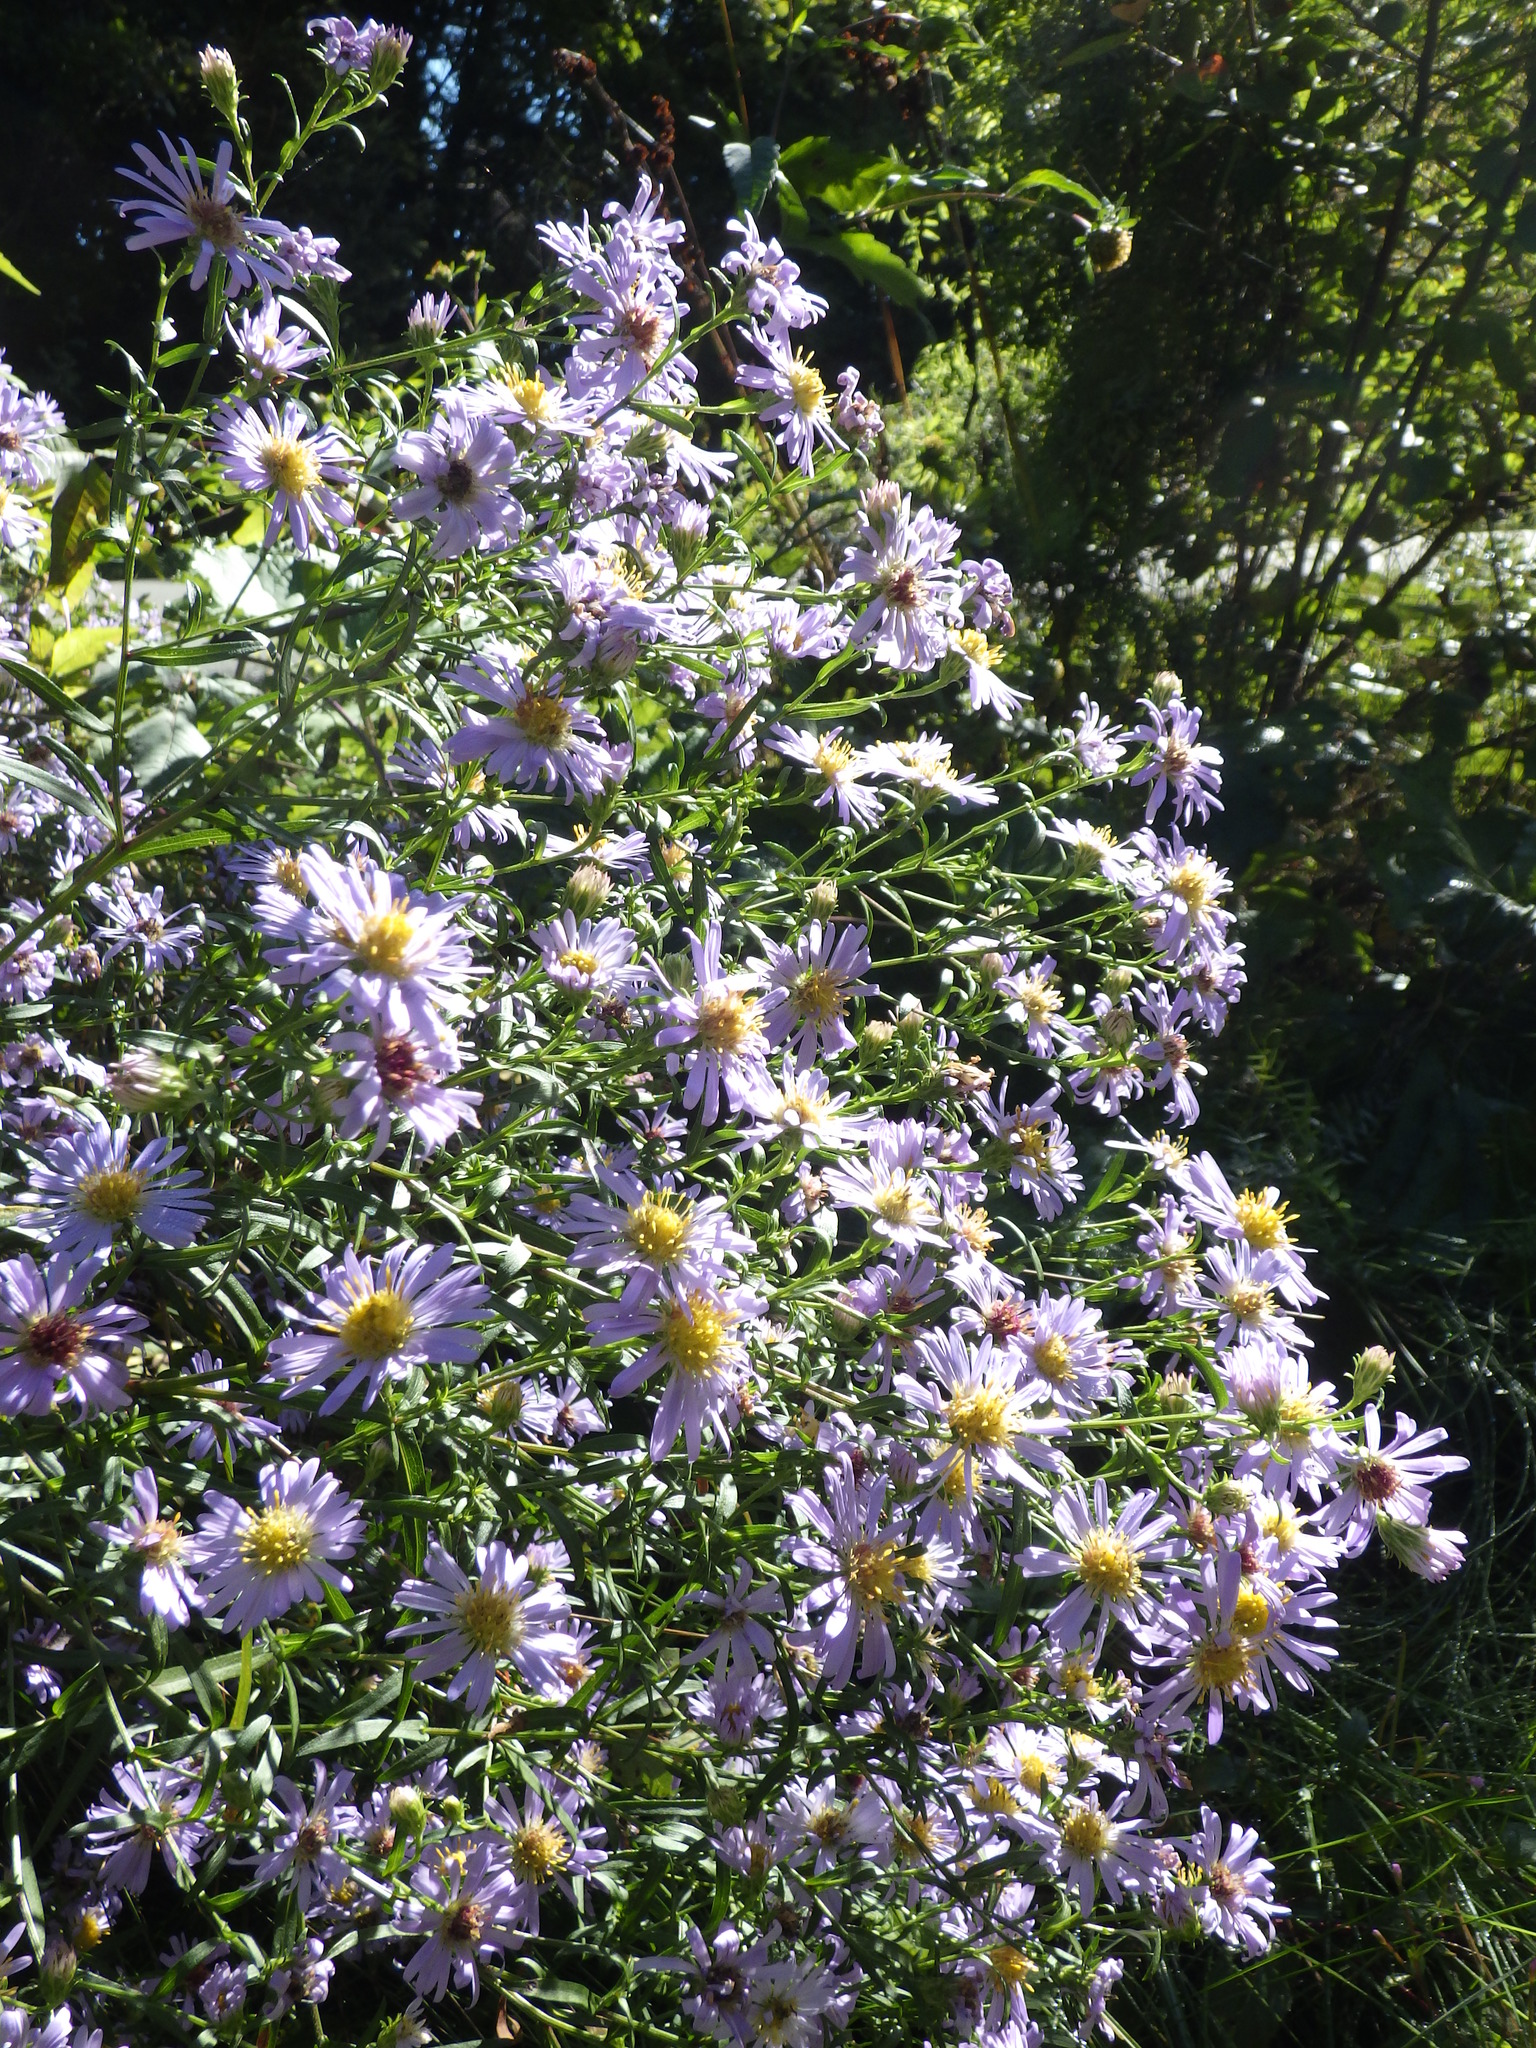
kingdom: Plantae
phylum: Tracheophyta
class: Magnoliopsida
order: Asterales
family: Asteraceae
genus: Symphyotrichum
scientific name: Symphyotrichum novi-belgii
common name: Michaelmas daisy
